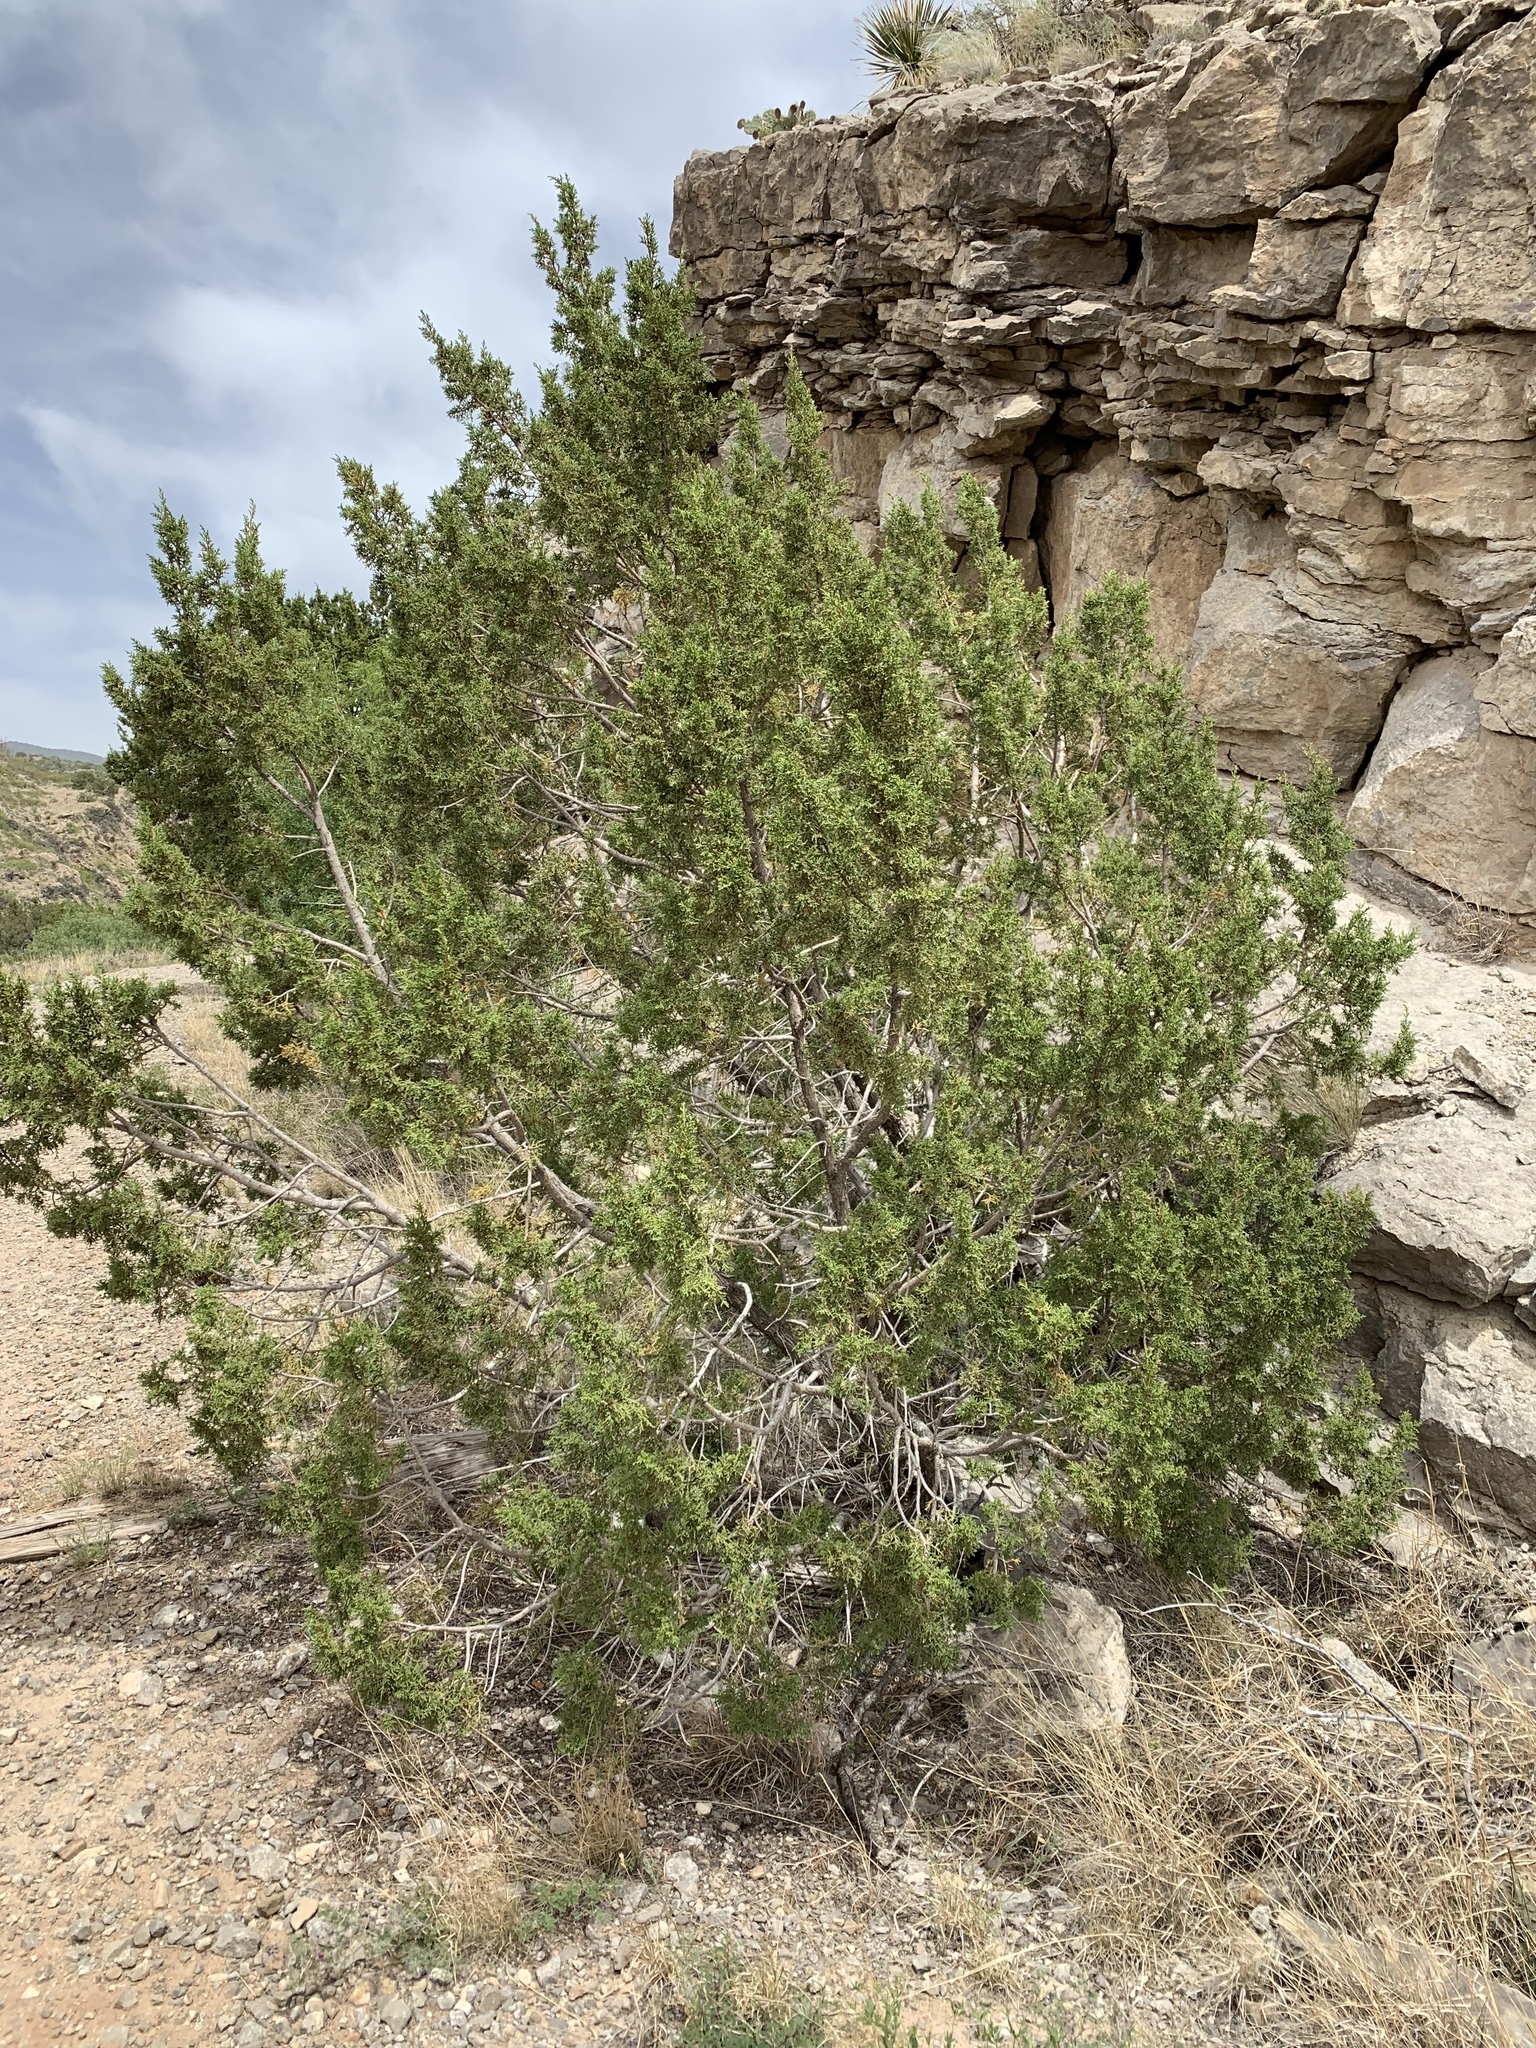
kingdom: Plantae
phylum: Tracheophyta
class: Pinopsida
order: Pinales
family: Cupressaceae
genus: Juniperus
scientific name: Juniperus monosperma
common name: One-seed juniper
